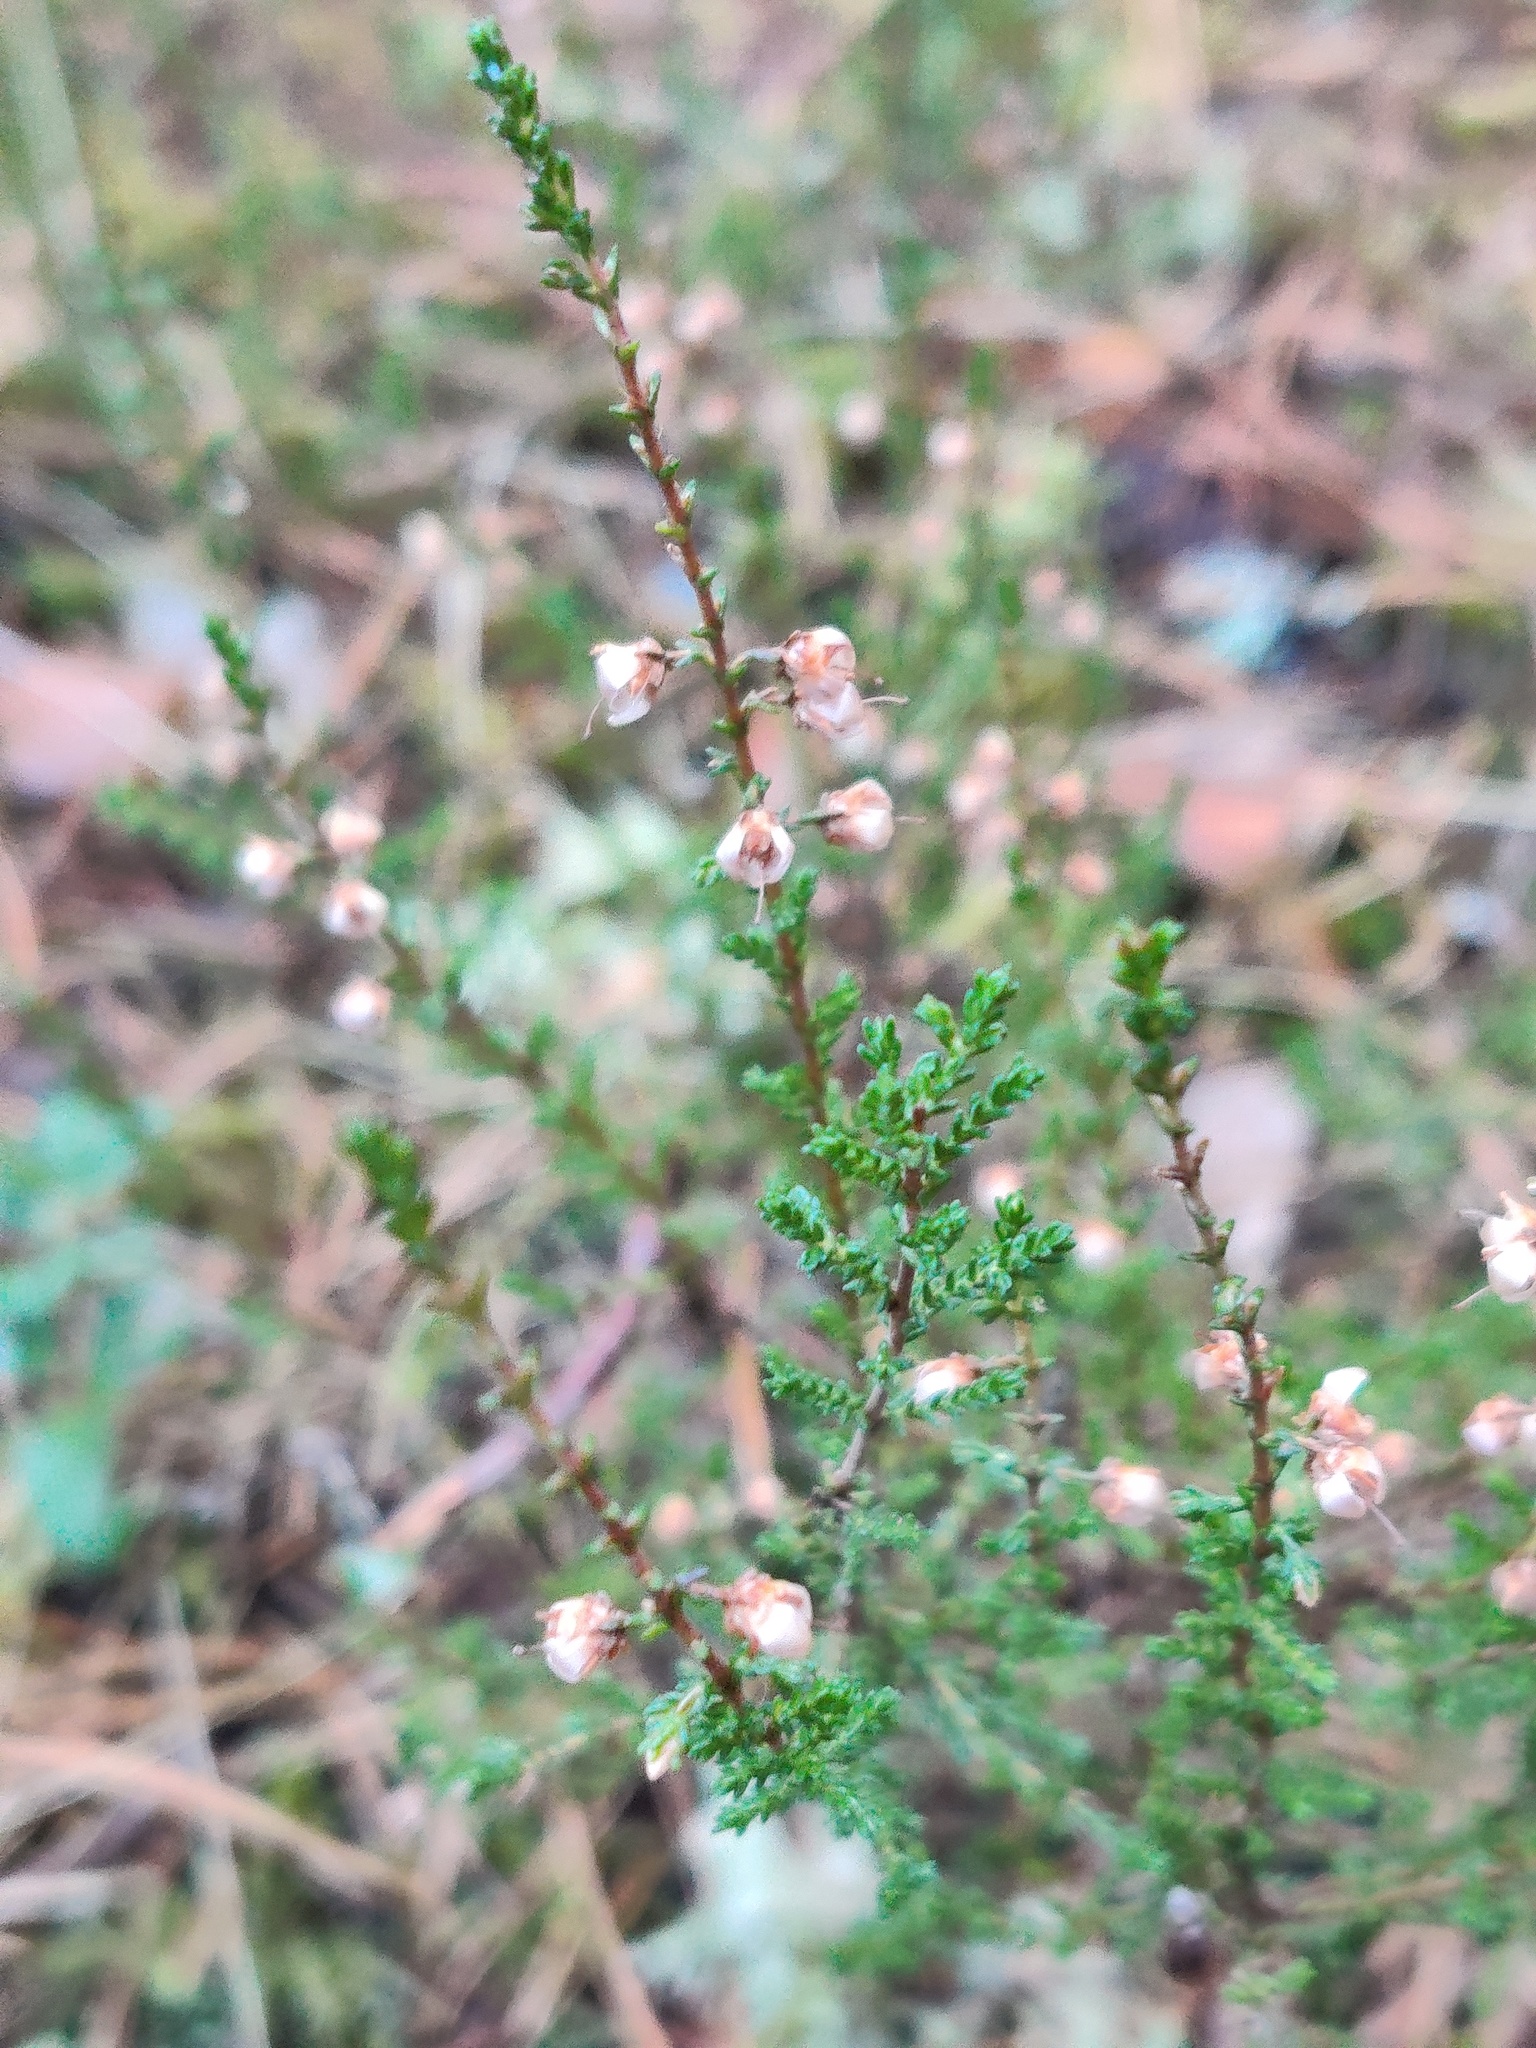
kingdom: Plantae
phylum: Tracheophyta
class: Magnoliopsida
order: Ericales
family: Ericaceae
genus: Calluna
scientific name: Calluna vulgaris
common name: Heather
